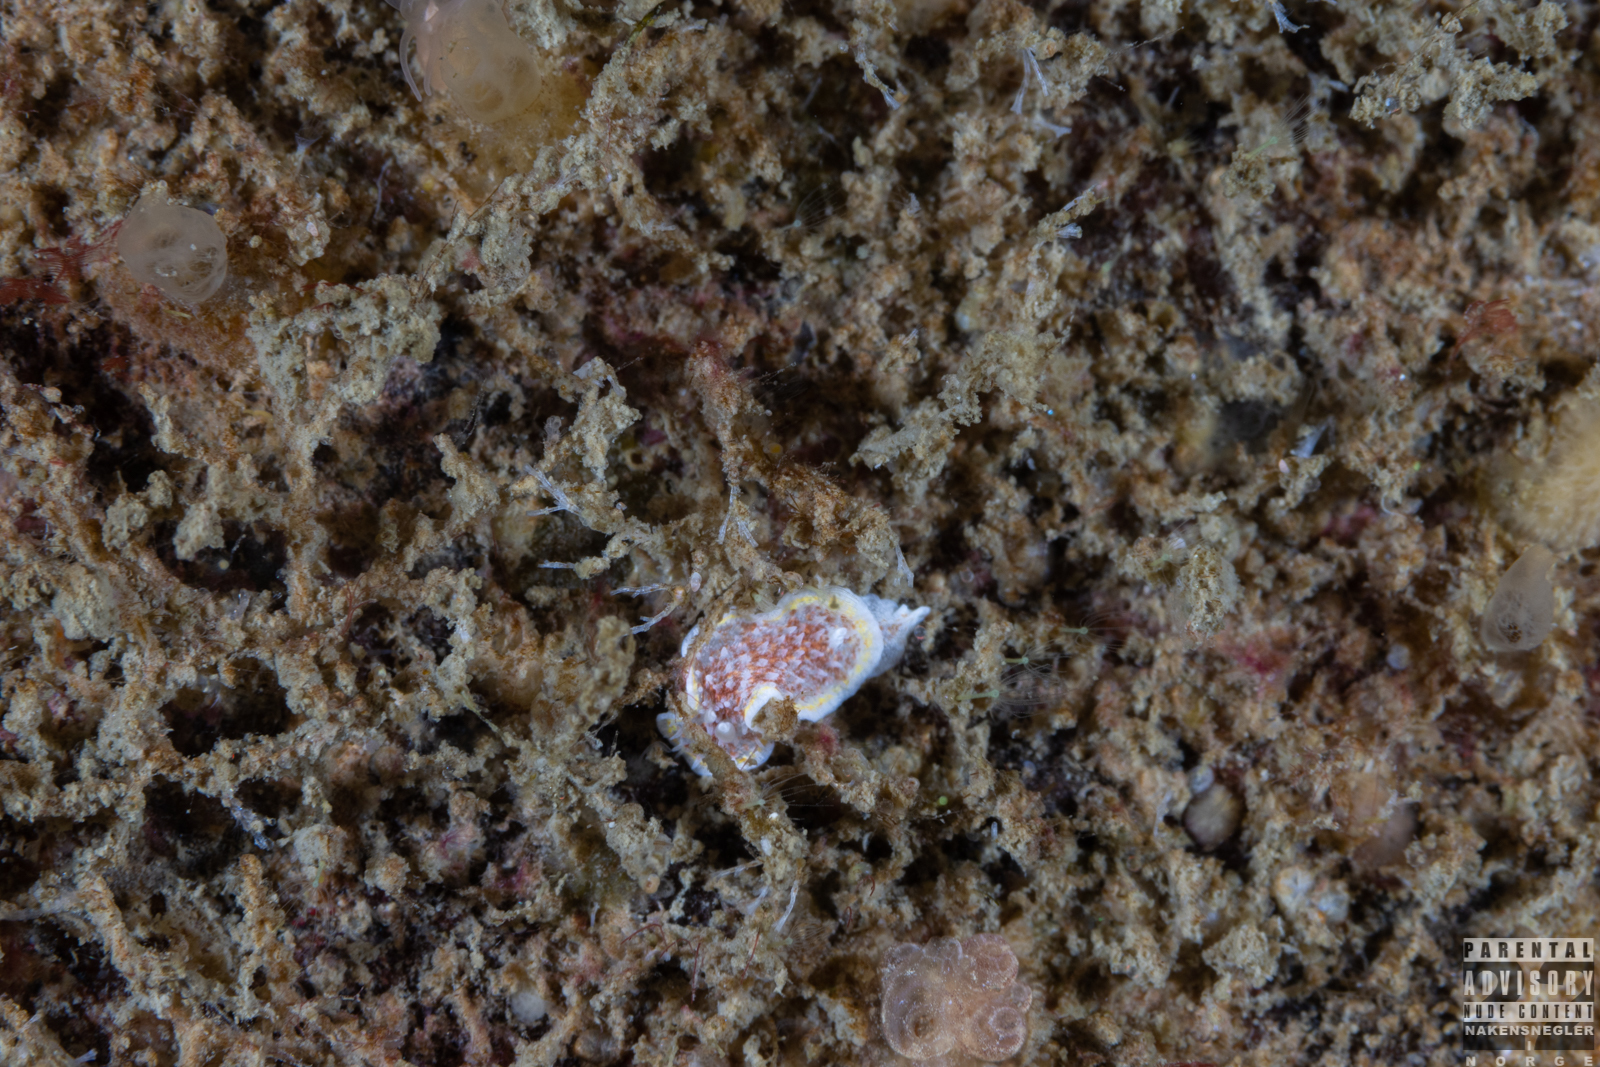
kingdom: Animalia
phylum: Mollusca
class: Gastropoda
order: Nudibranchia
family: Calycidorididae
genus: Diaphorodoris
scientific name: Diaphorodoris luteocincta
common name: Fried egg nudibranch
